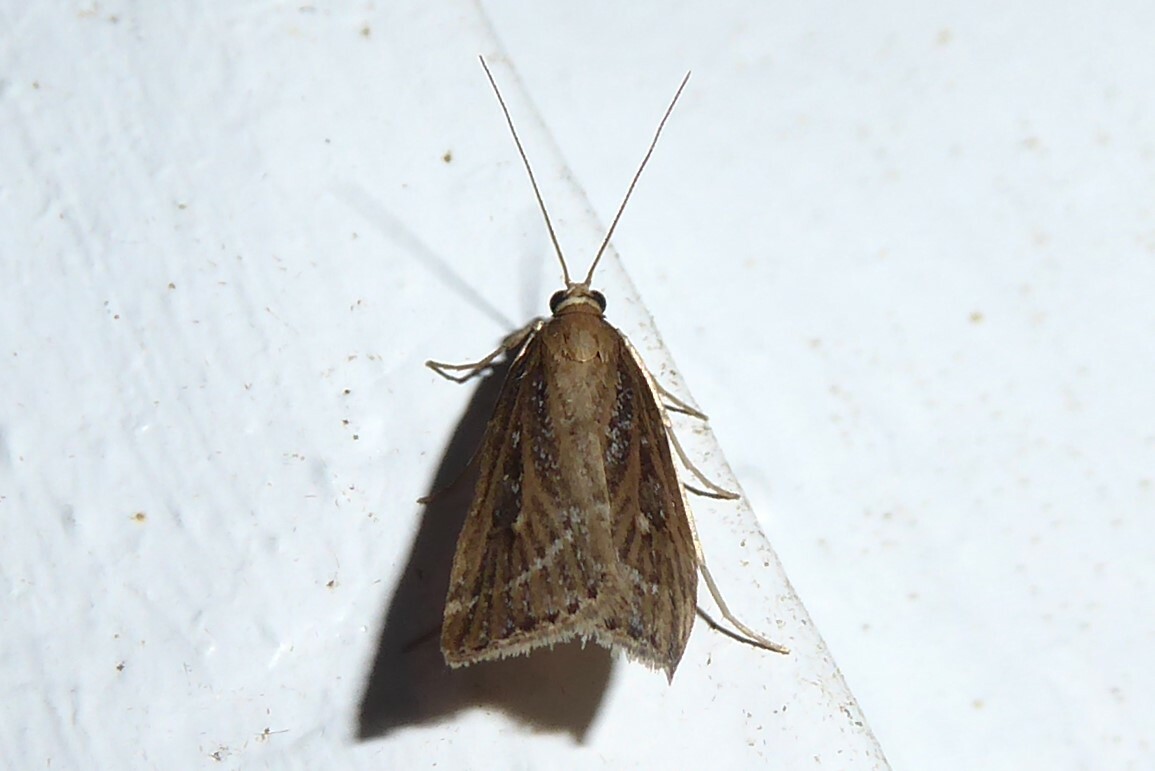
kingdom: Animalia
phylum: Arthropoda
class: Insecta
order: Lepidoptera
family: Crambidae
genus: Eudonia
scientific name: Eudonia octophora
